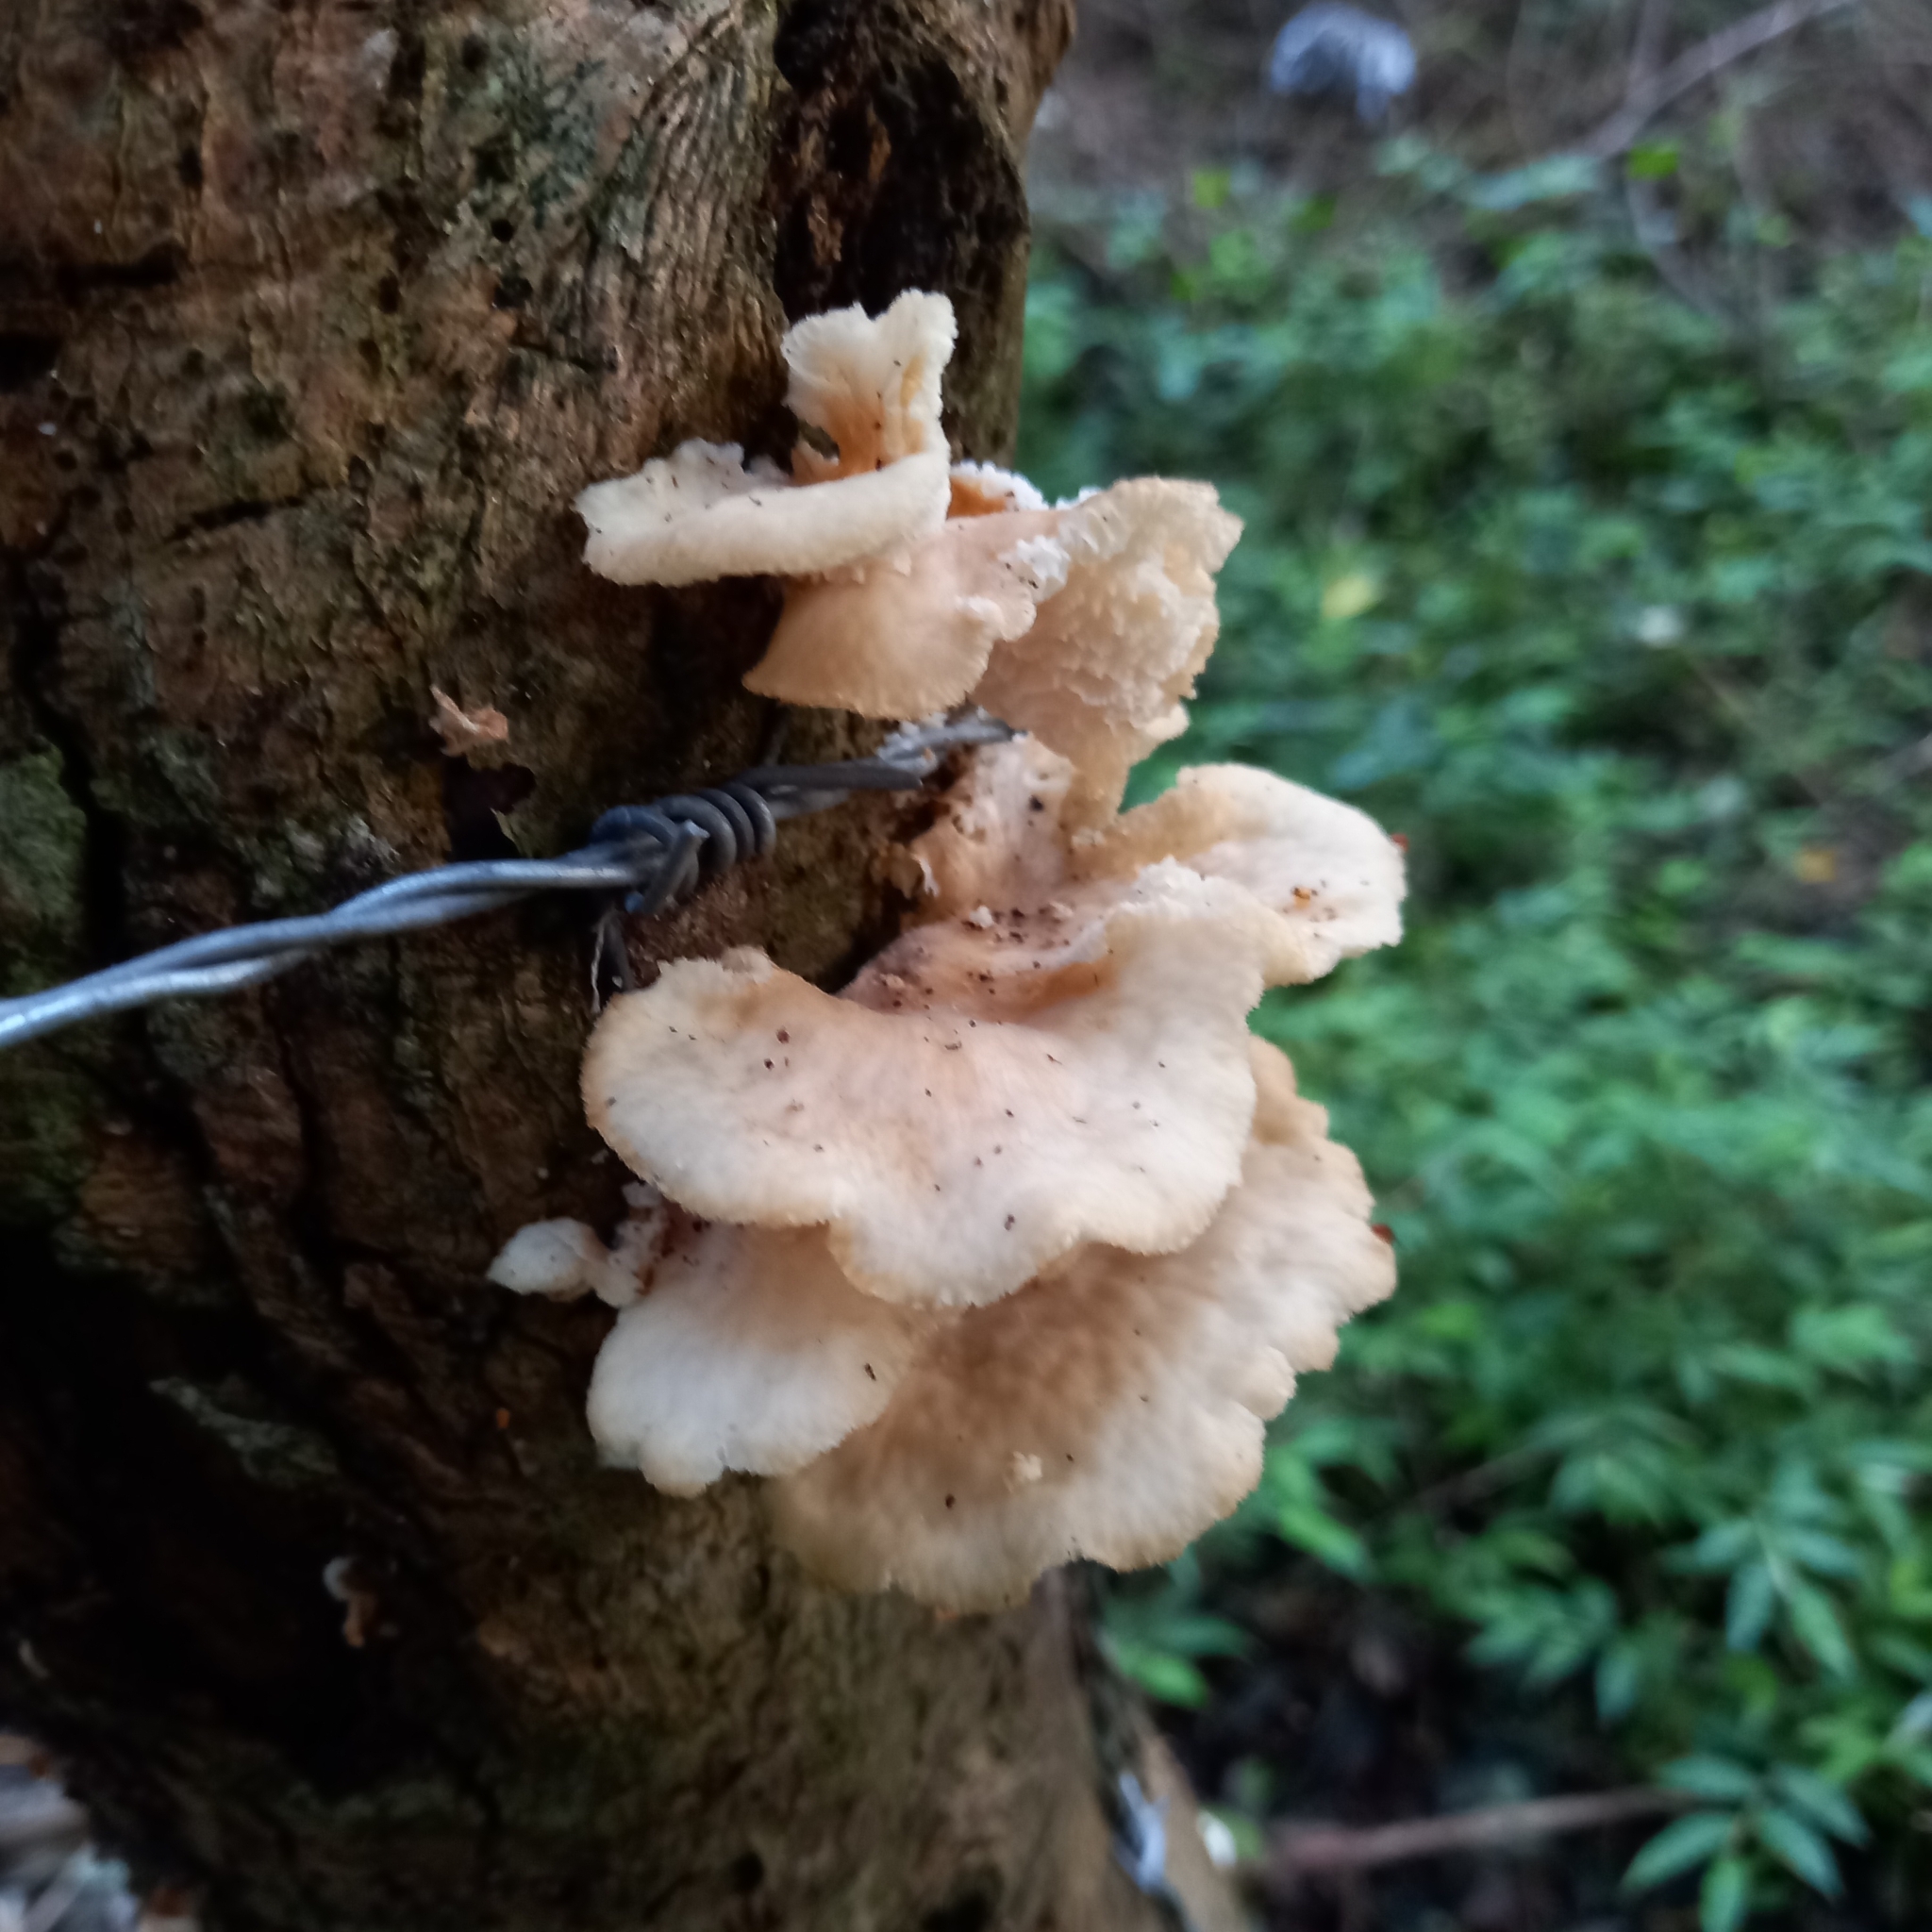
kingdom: Fungi
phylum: Basidiomycota
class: Agaricomycetes
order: Polyporales
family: Polyporaceae
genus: Favolus
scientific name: Favolus tenuiculus
